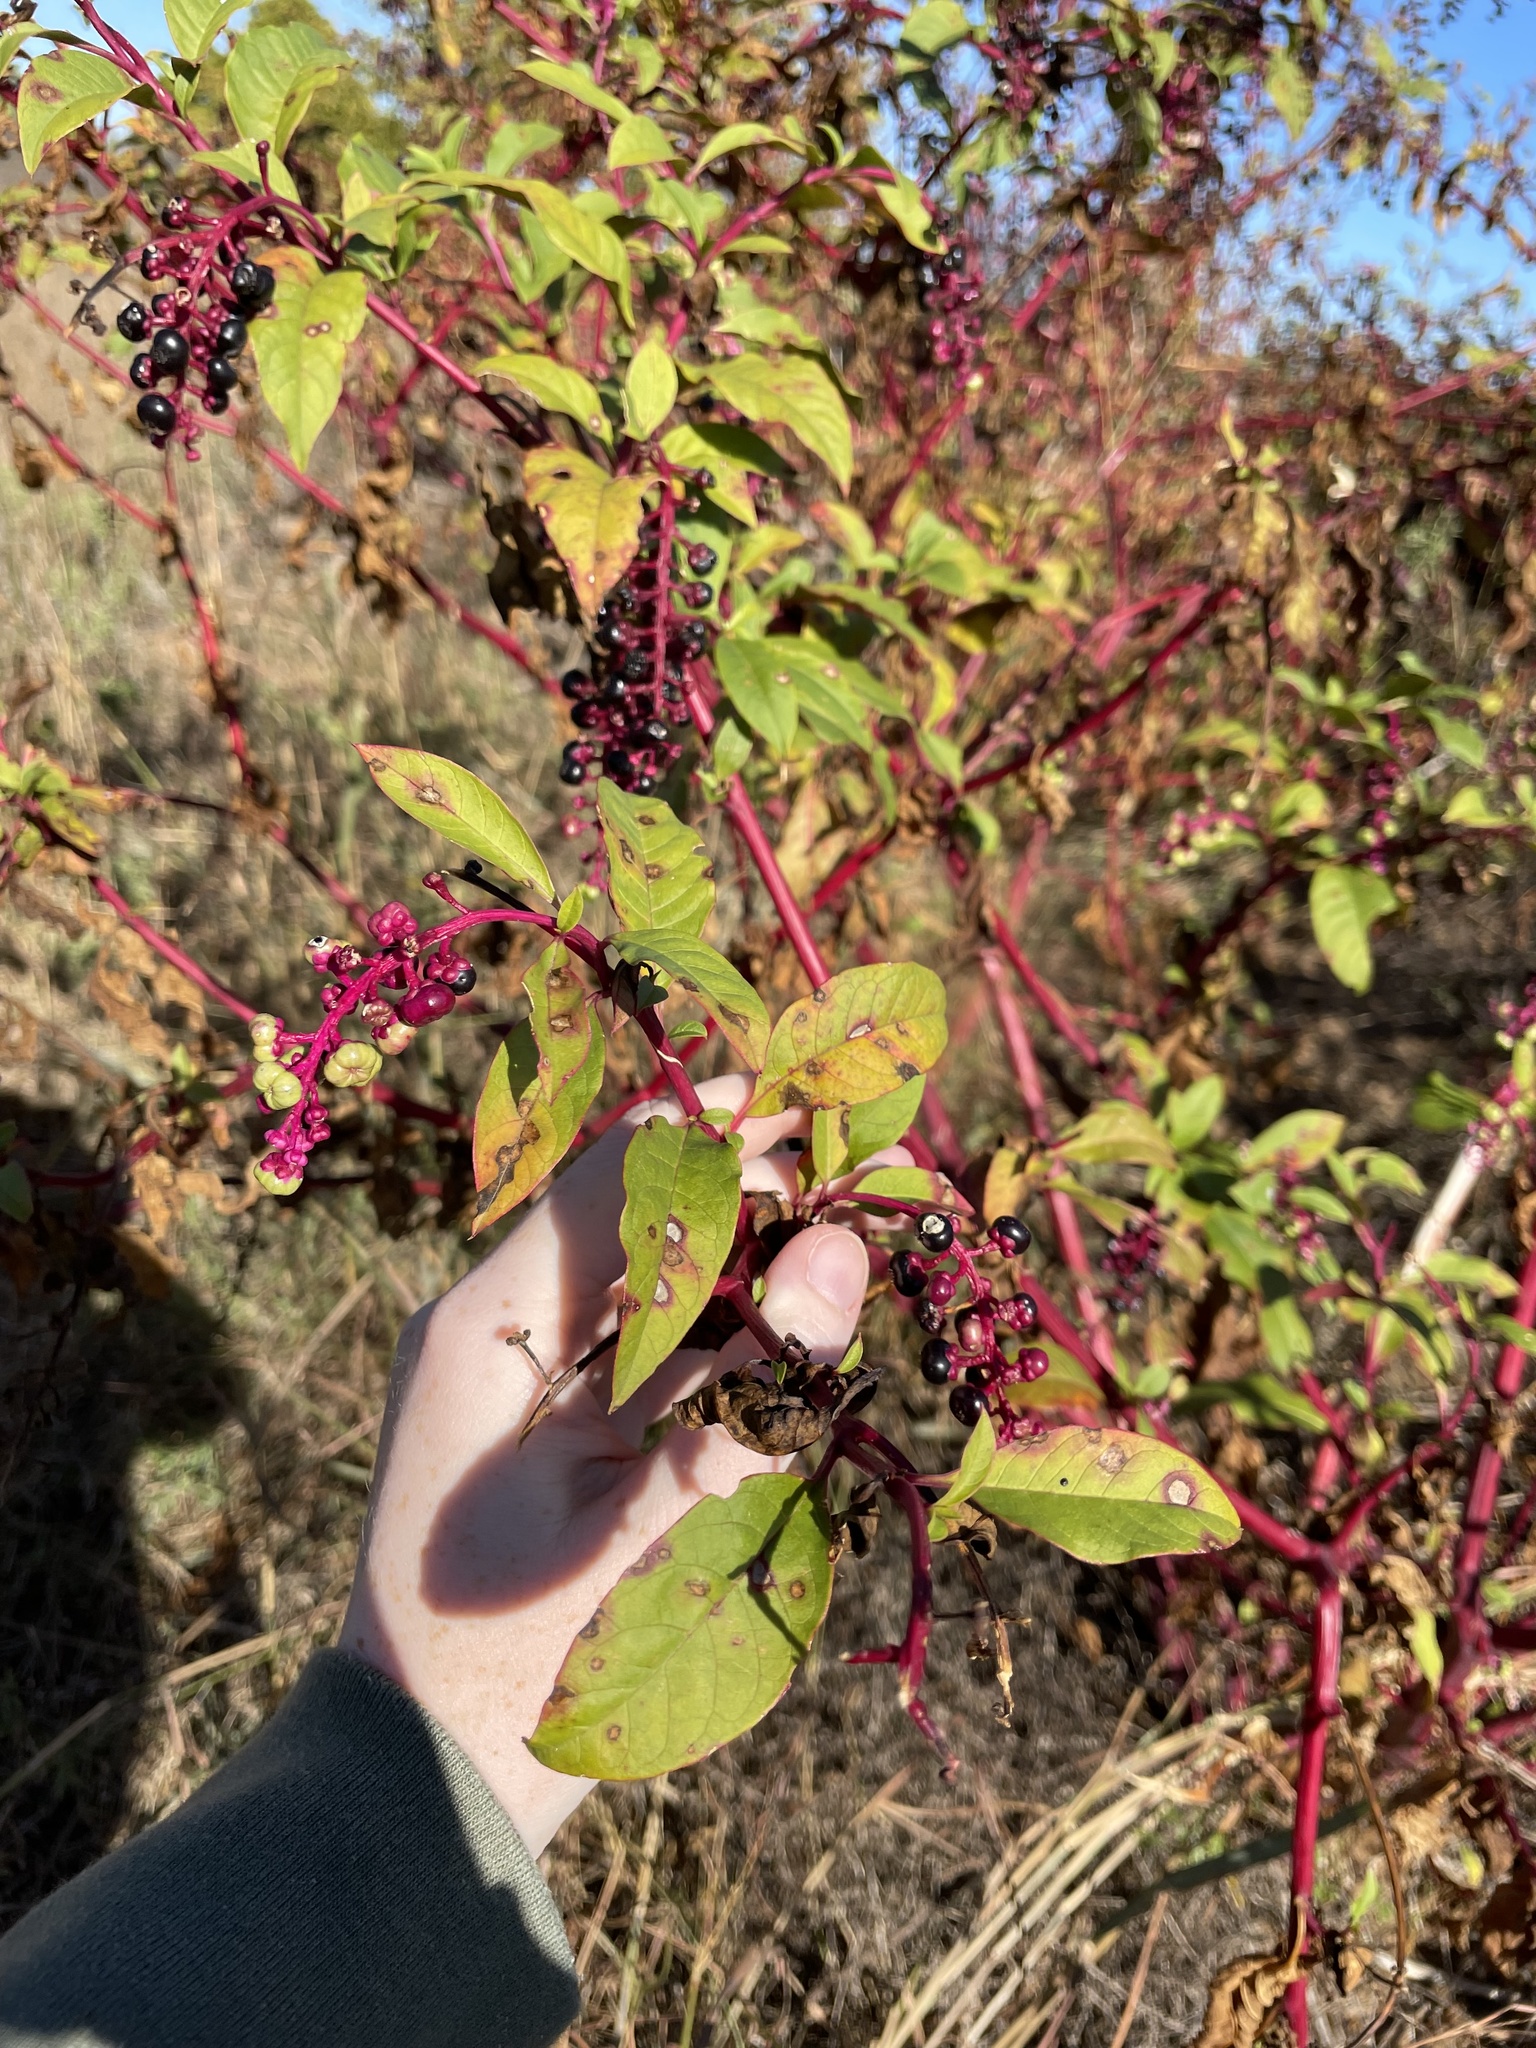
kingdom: Plantae
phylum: Tracheophyta
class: Magnoliopsida
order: Caryophyllales
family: Phytolaccaceae
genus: Phytolacca
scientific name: Phytolacca americana
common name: American pokeweed
